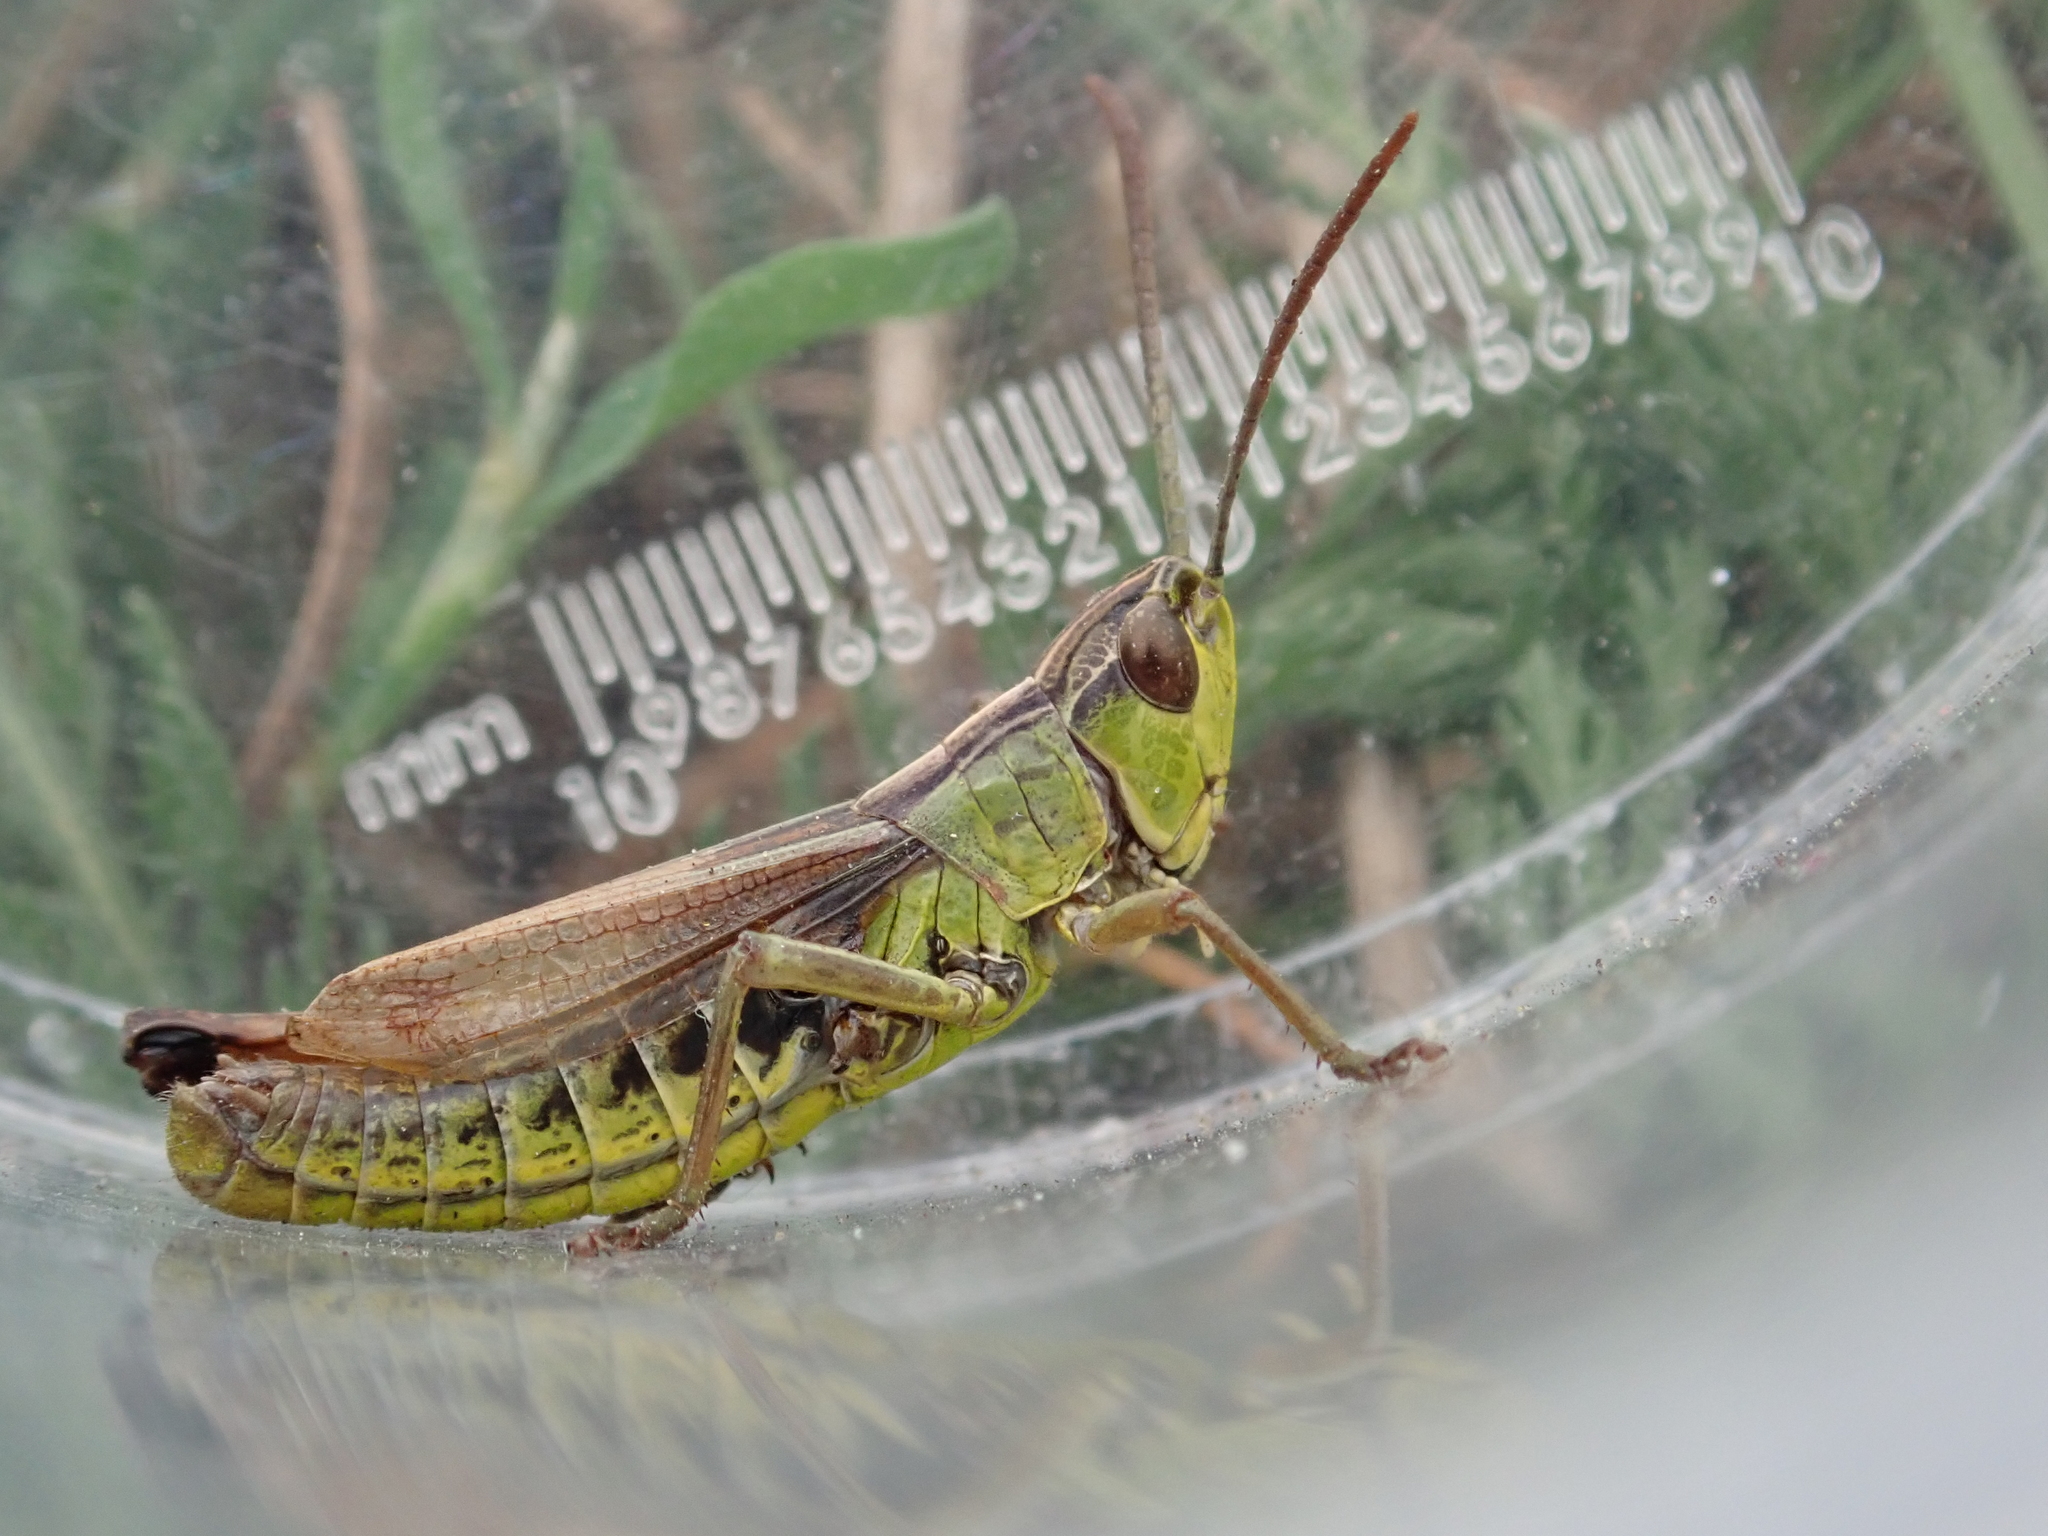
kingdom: Animalia
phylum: Arthropoda
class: Insecta
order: Orthoptera
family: Acrididae
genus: Pseudochorthippus
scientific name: Pseudochorthippus parallelus
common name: Meadow grasshopper
